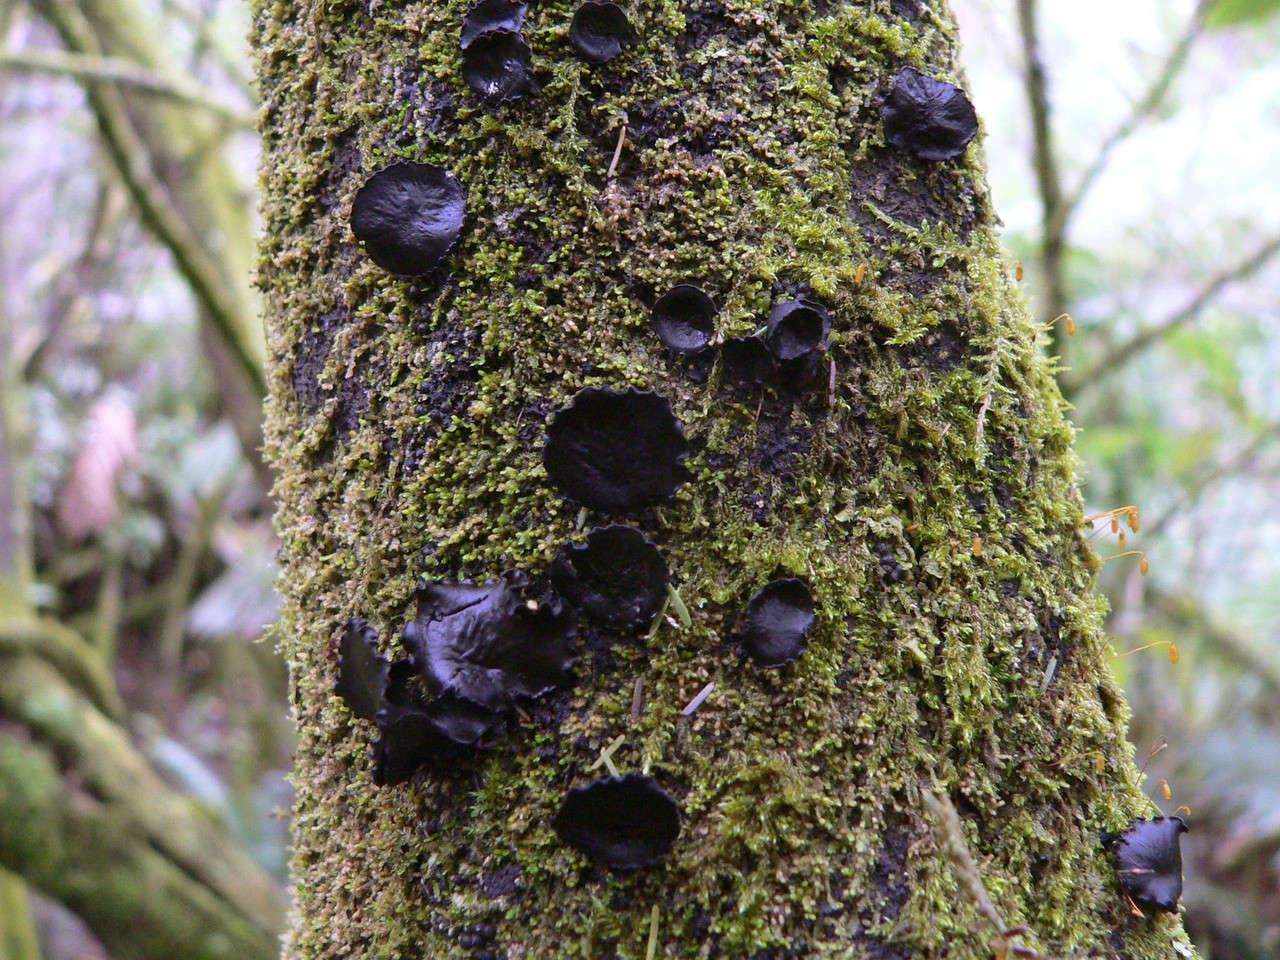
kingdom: Fungi
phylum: Ascomycota
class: Leotiomycetes
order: Helotiales
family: Cordieritidaceae
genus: Cordierites
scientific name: Cordierites frondosus
